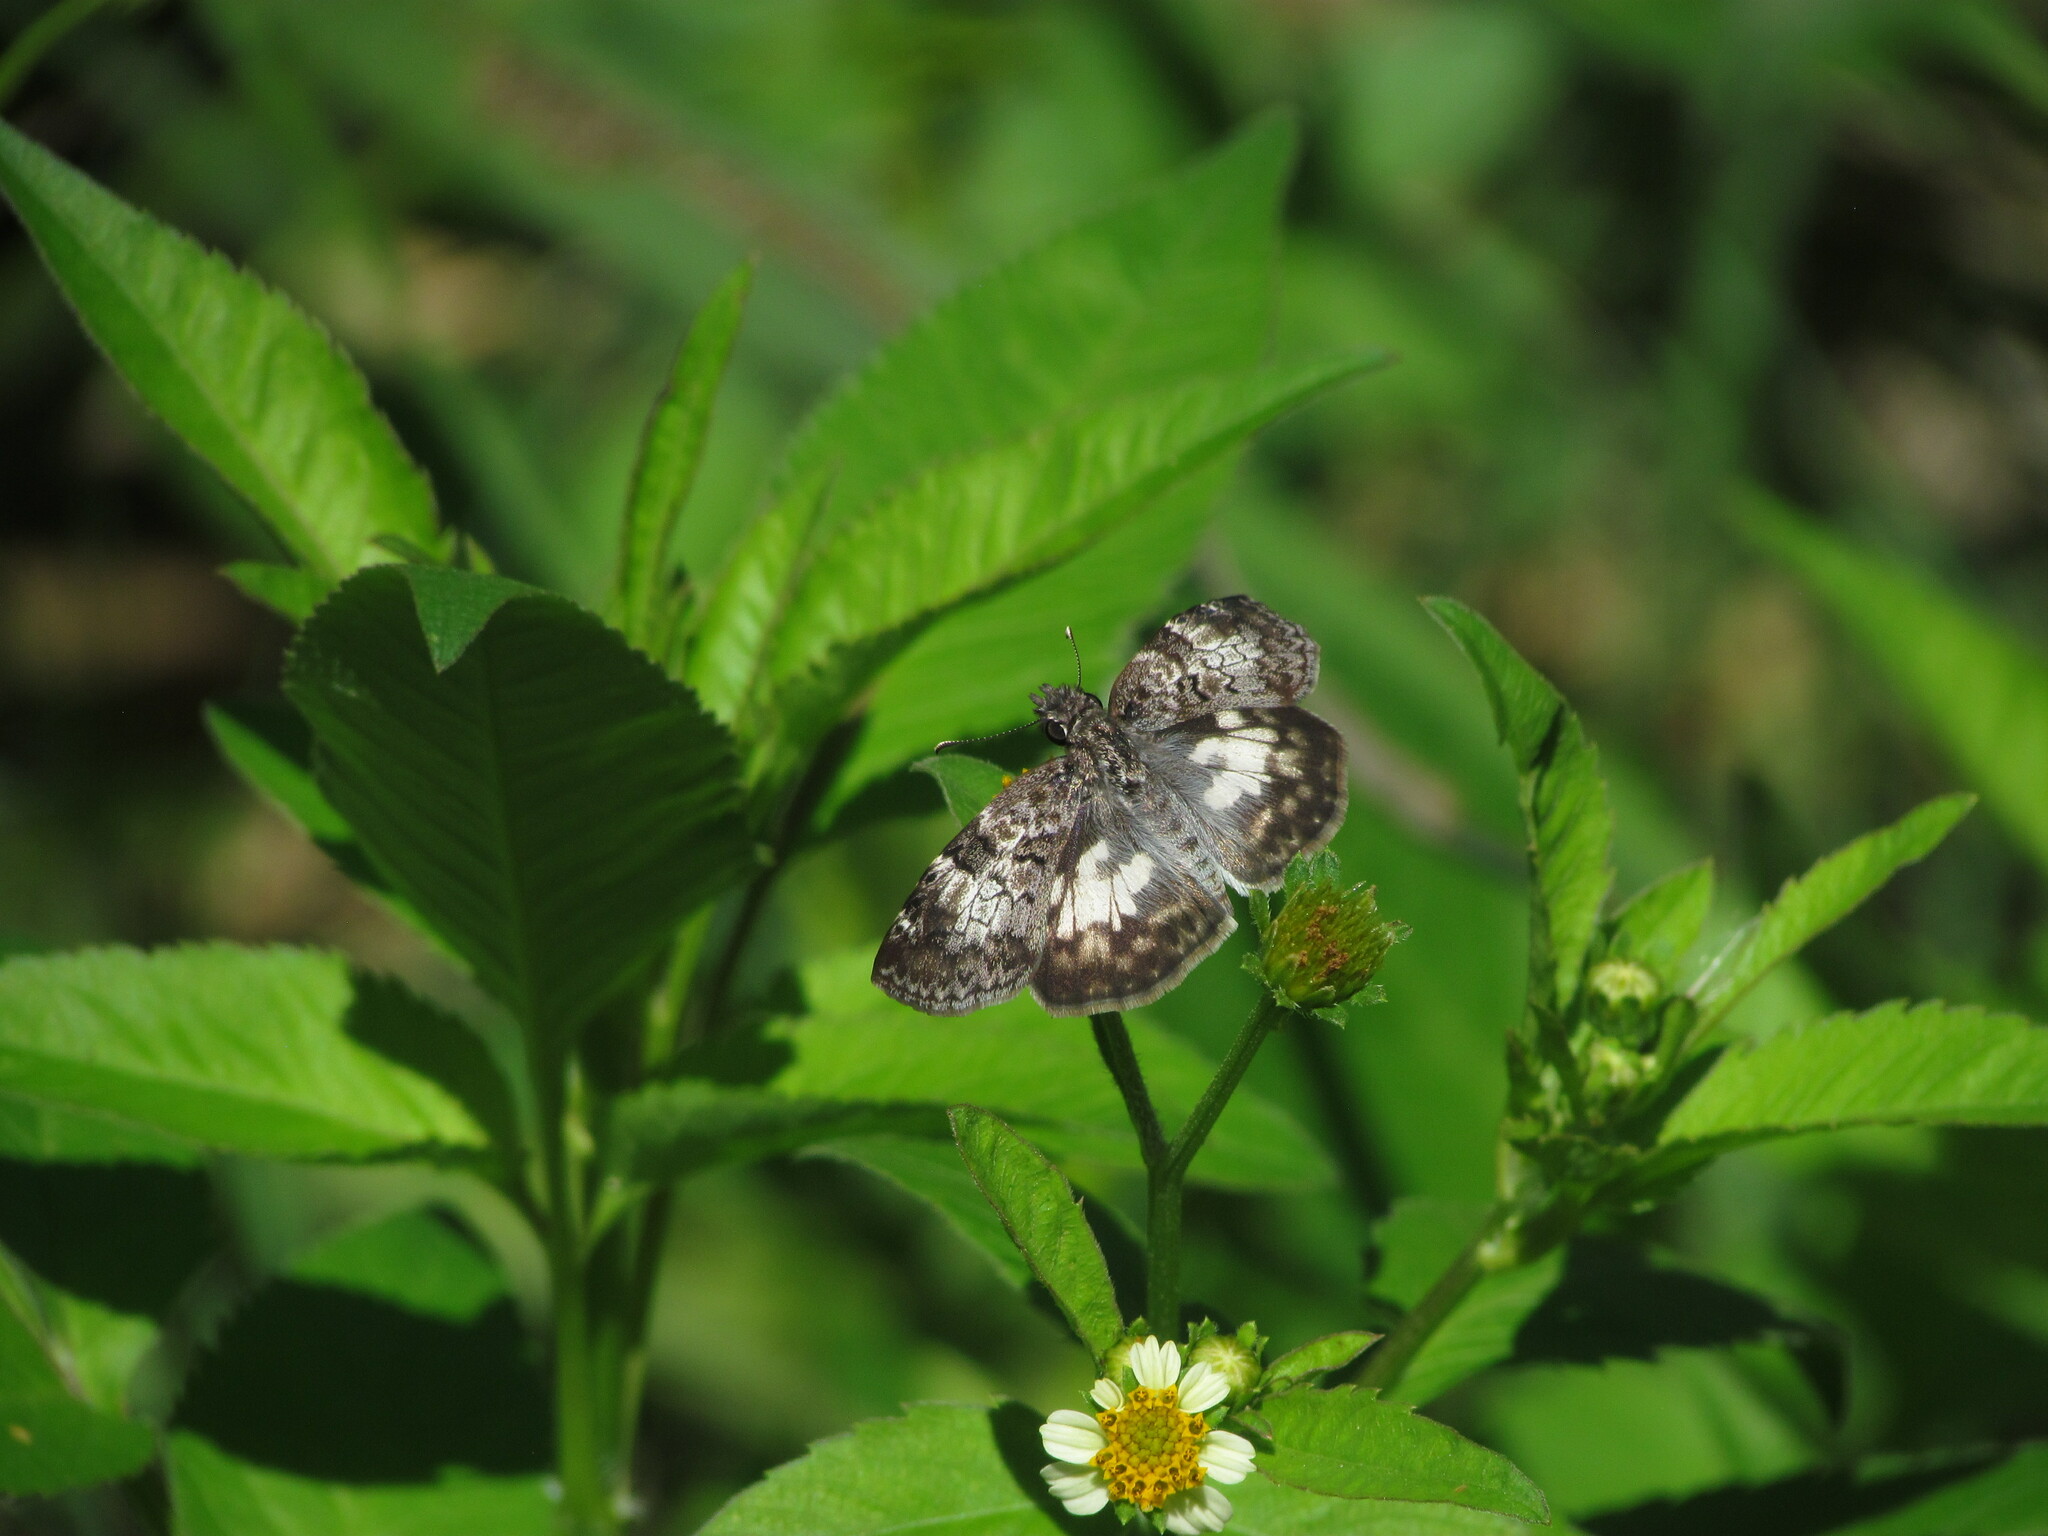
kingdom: Animalia
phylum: Arthropoda
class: Insecta
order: Lepidoptera
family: Hesperiidae
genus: Chiomara
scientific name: Chiomara asychis
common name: White-patterned skipper
